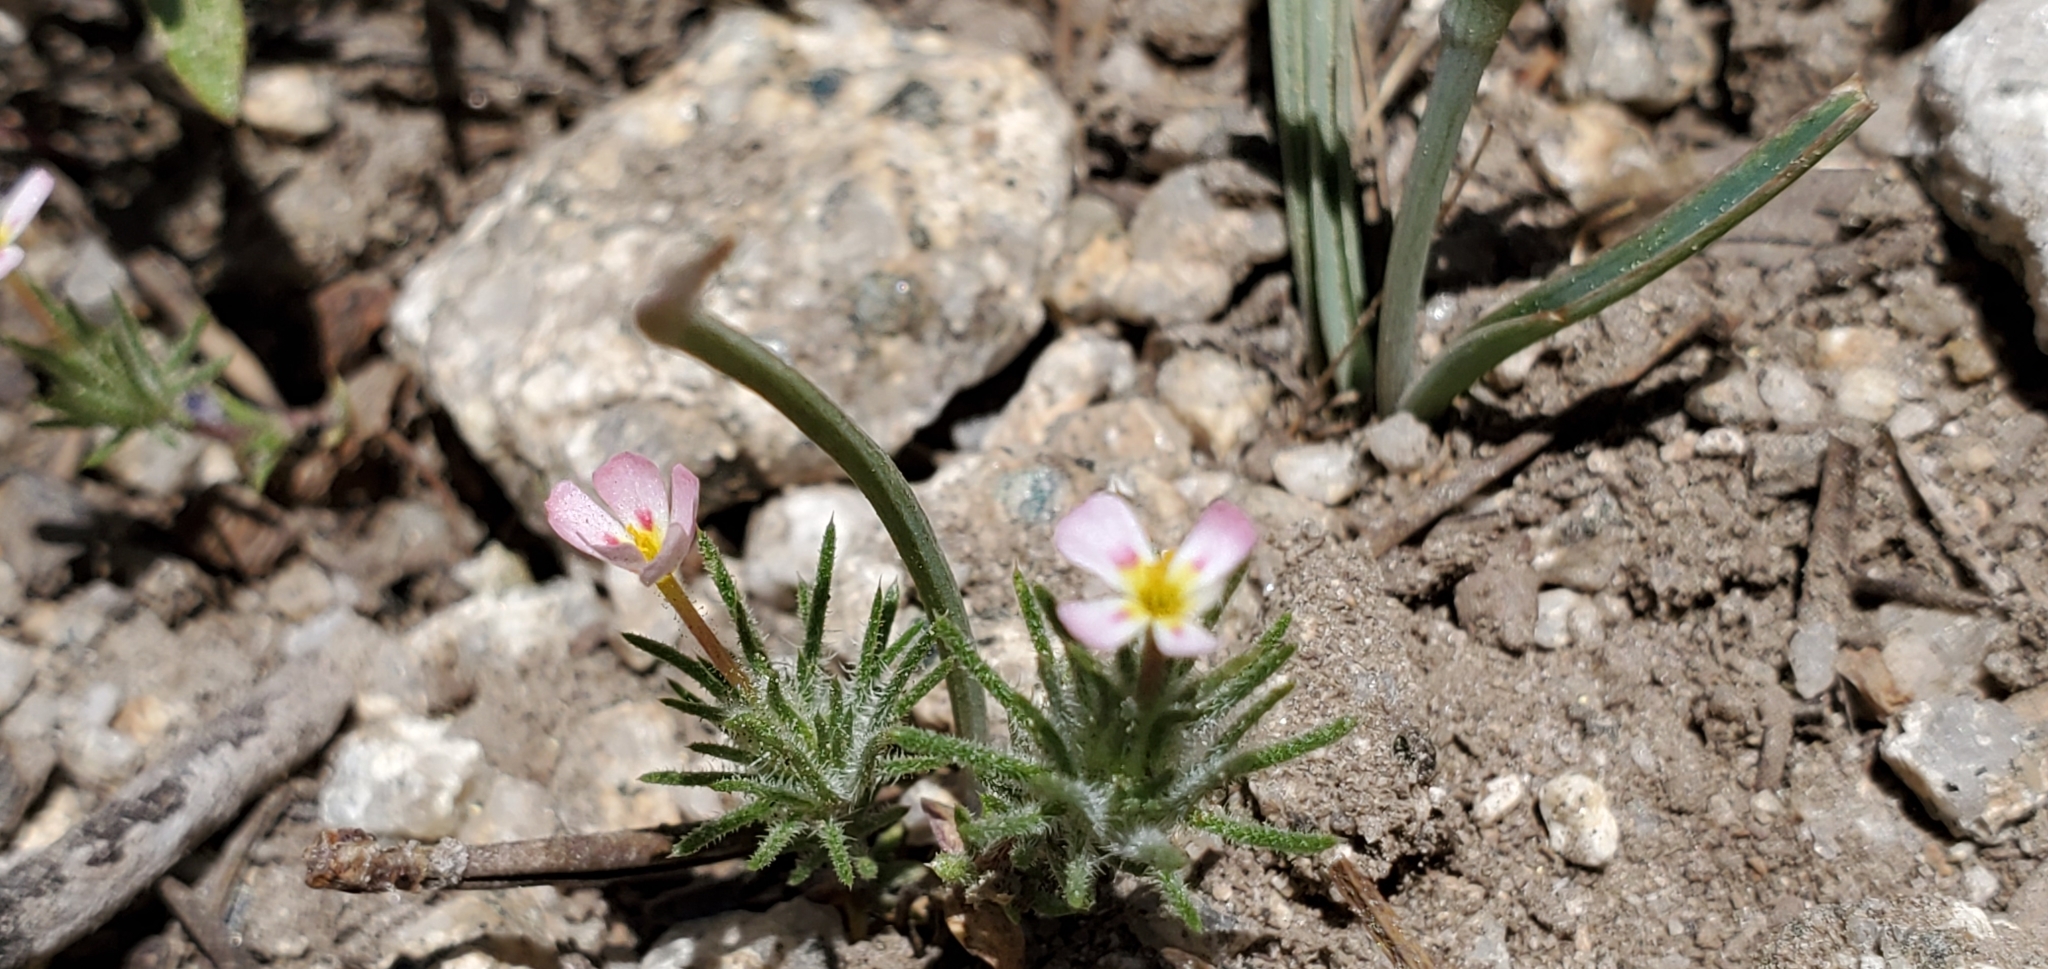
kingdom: Plantae
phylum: Tracheophyta
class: Magnoliopsida
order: Ericales
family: Polemoniaceae
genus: Leptosiphon
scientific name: Leptosiphon ciliatus
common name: Whiskerbrush
